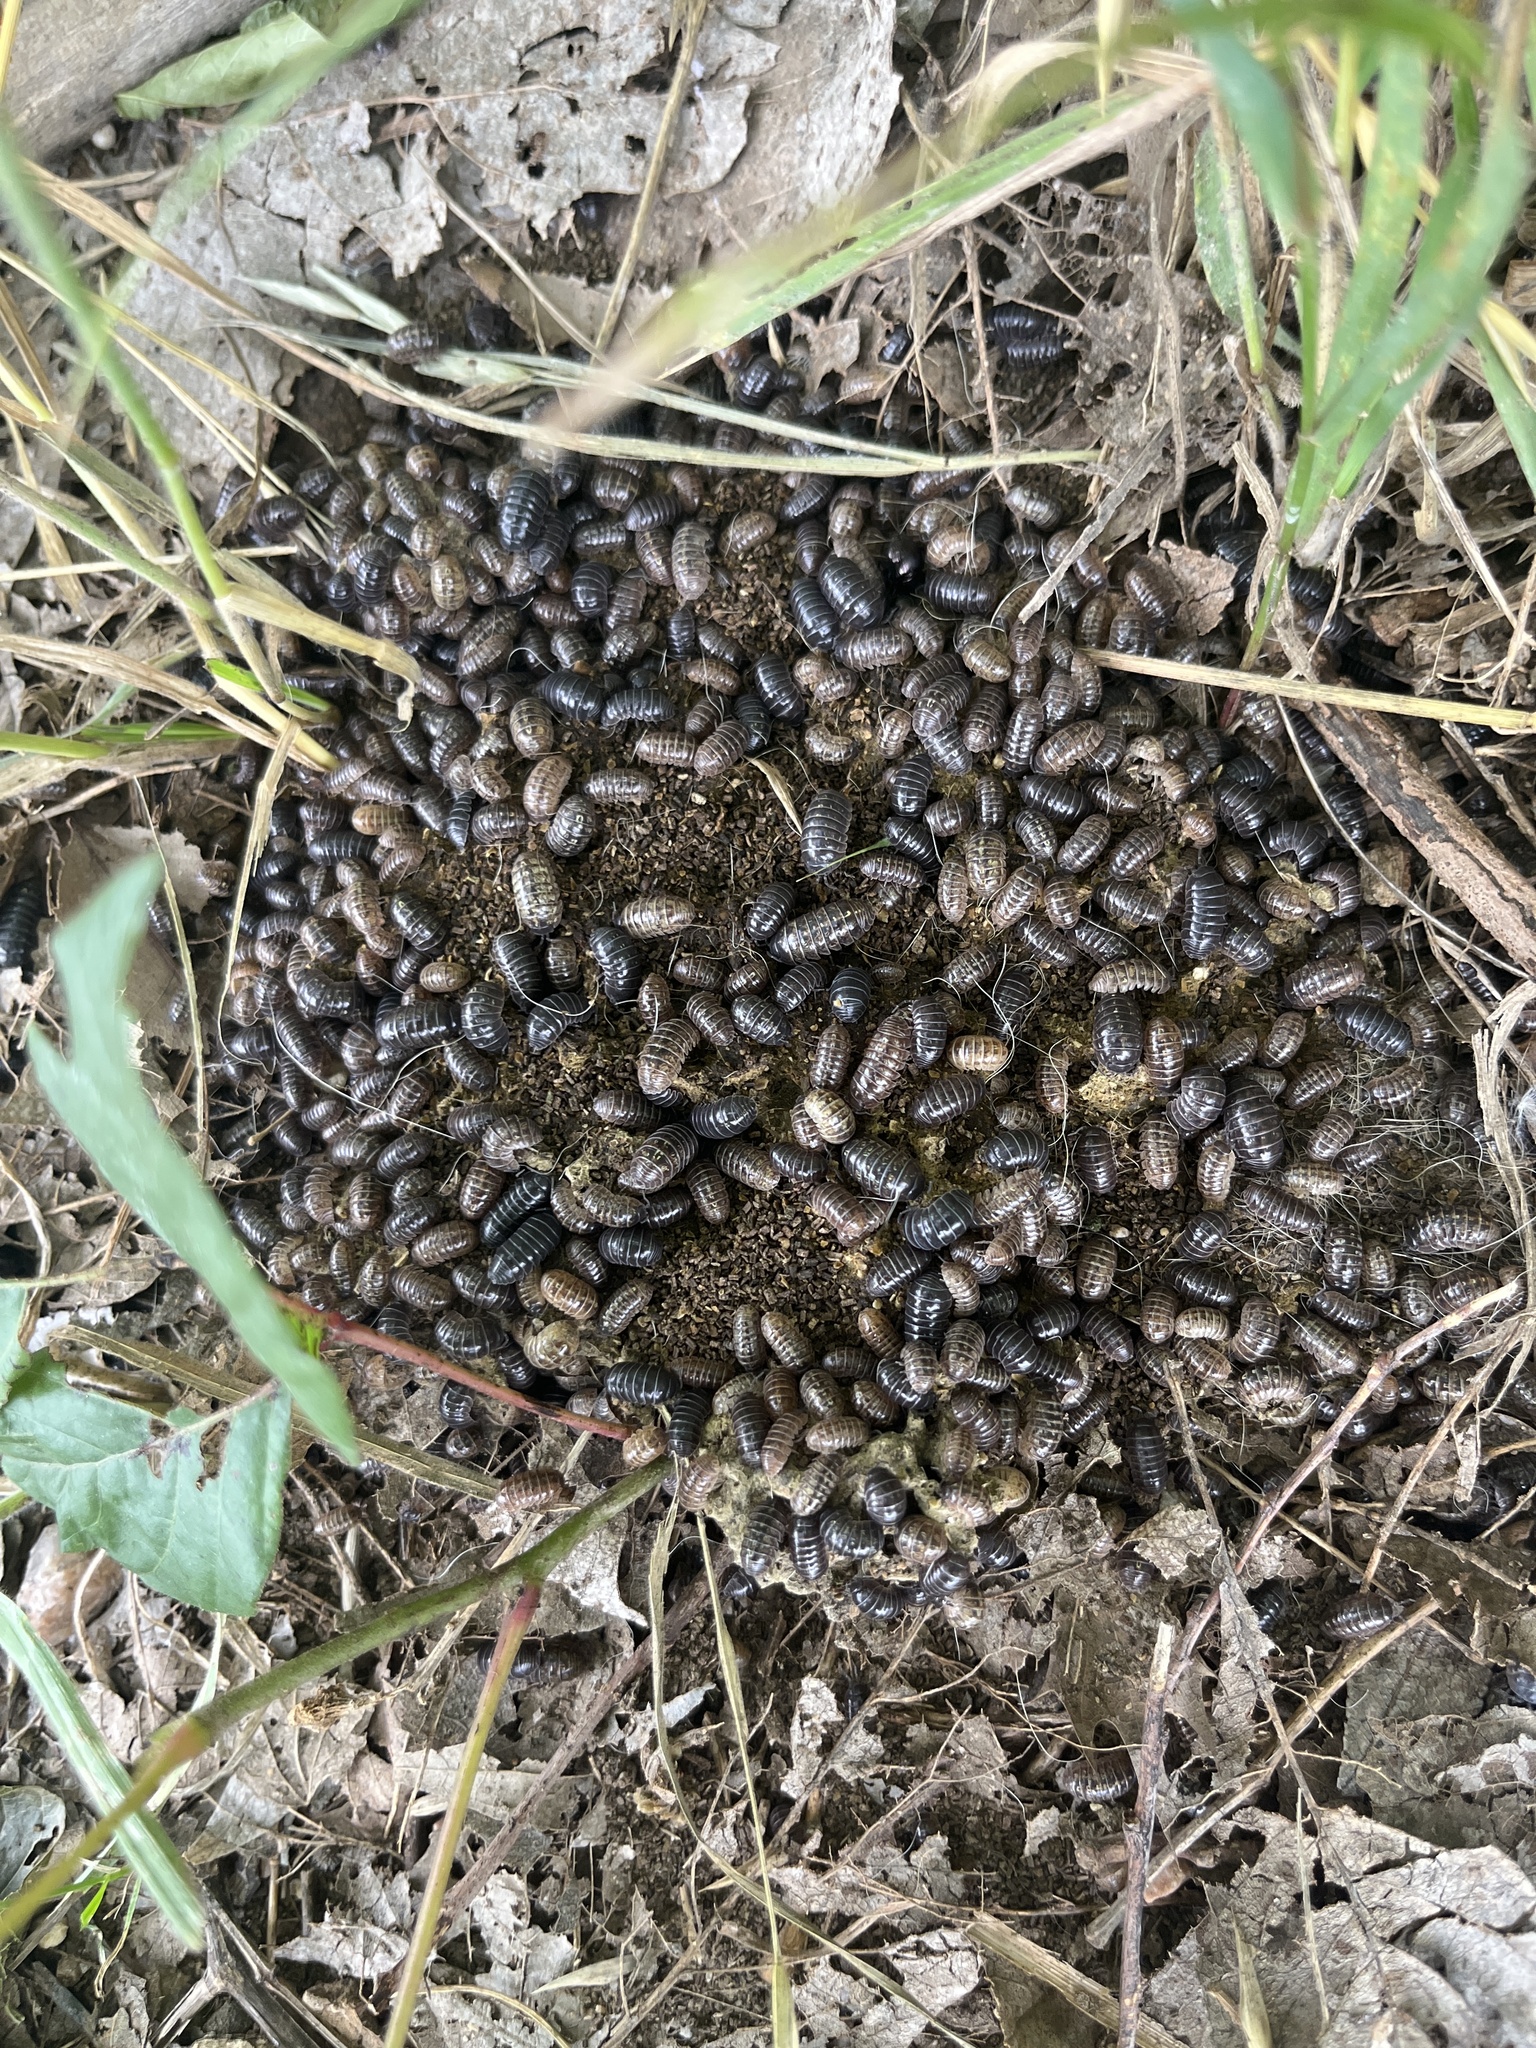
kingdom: Animalia
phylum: Arthropoda
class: Malacostraca
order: Isopoda
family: Armadillidiidae
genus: Armadillidium
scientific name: Armadillidium vulgare
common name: Common pill woodlouse
